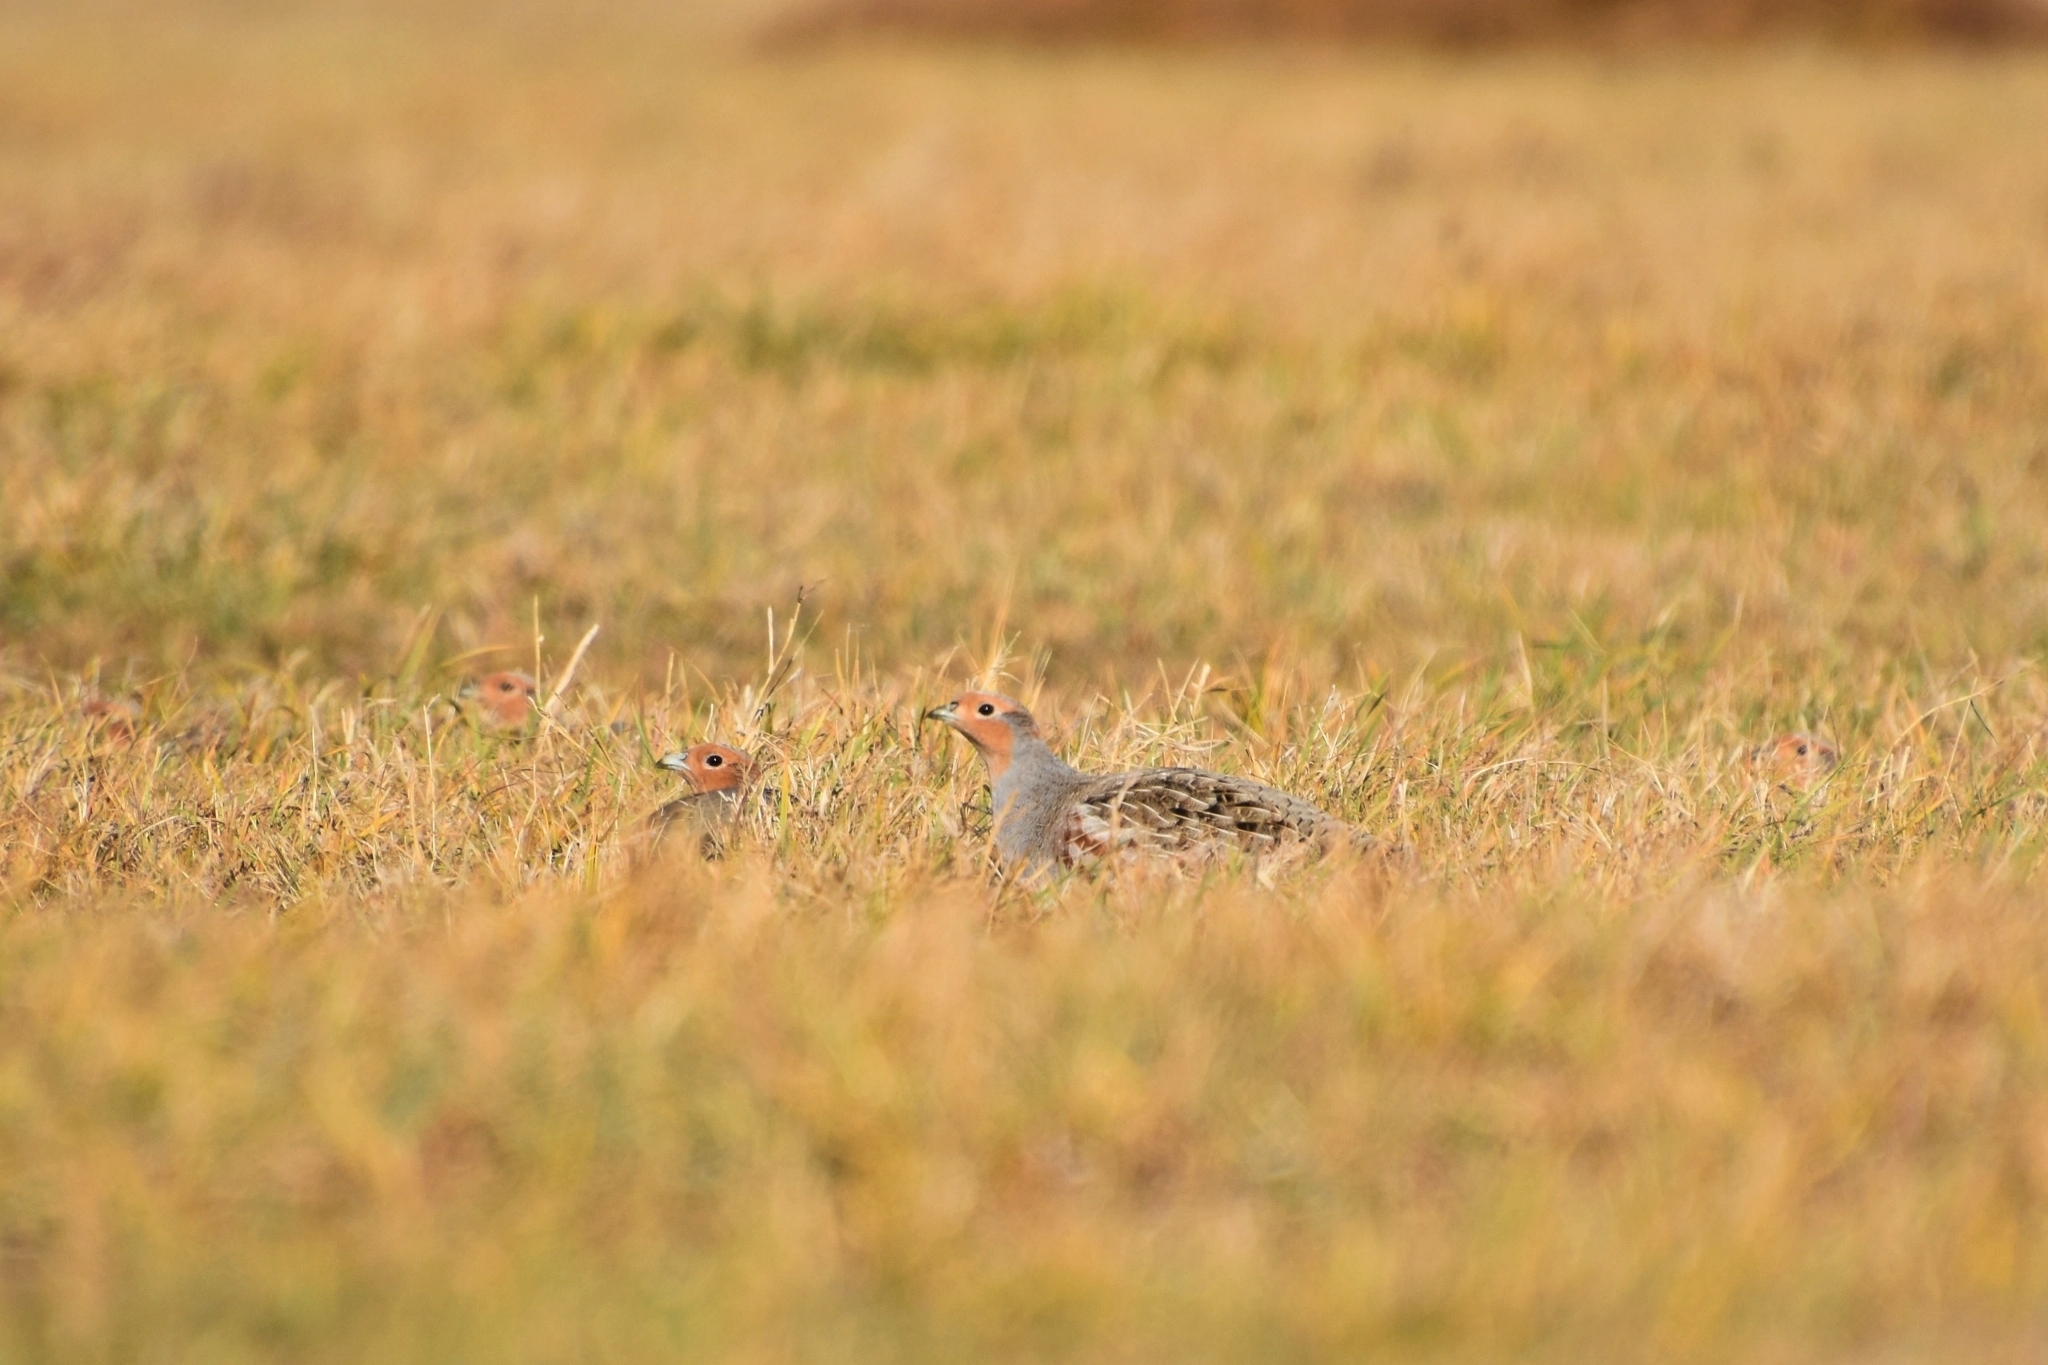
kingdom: Animalia
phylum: Chordata
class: Aves
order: Galliformes
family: Phasianidae
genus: Perdix
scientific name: Perdix perdix
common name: Grey partridge
